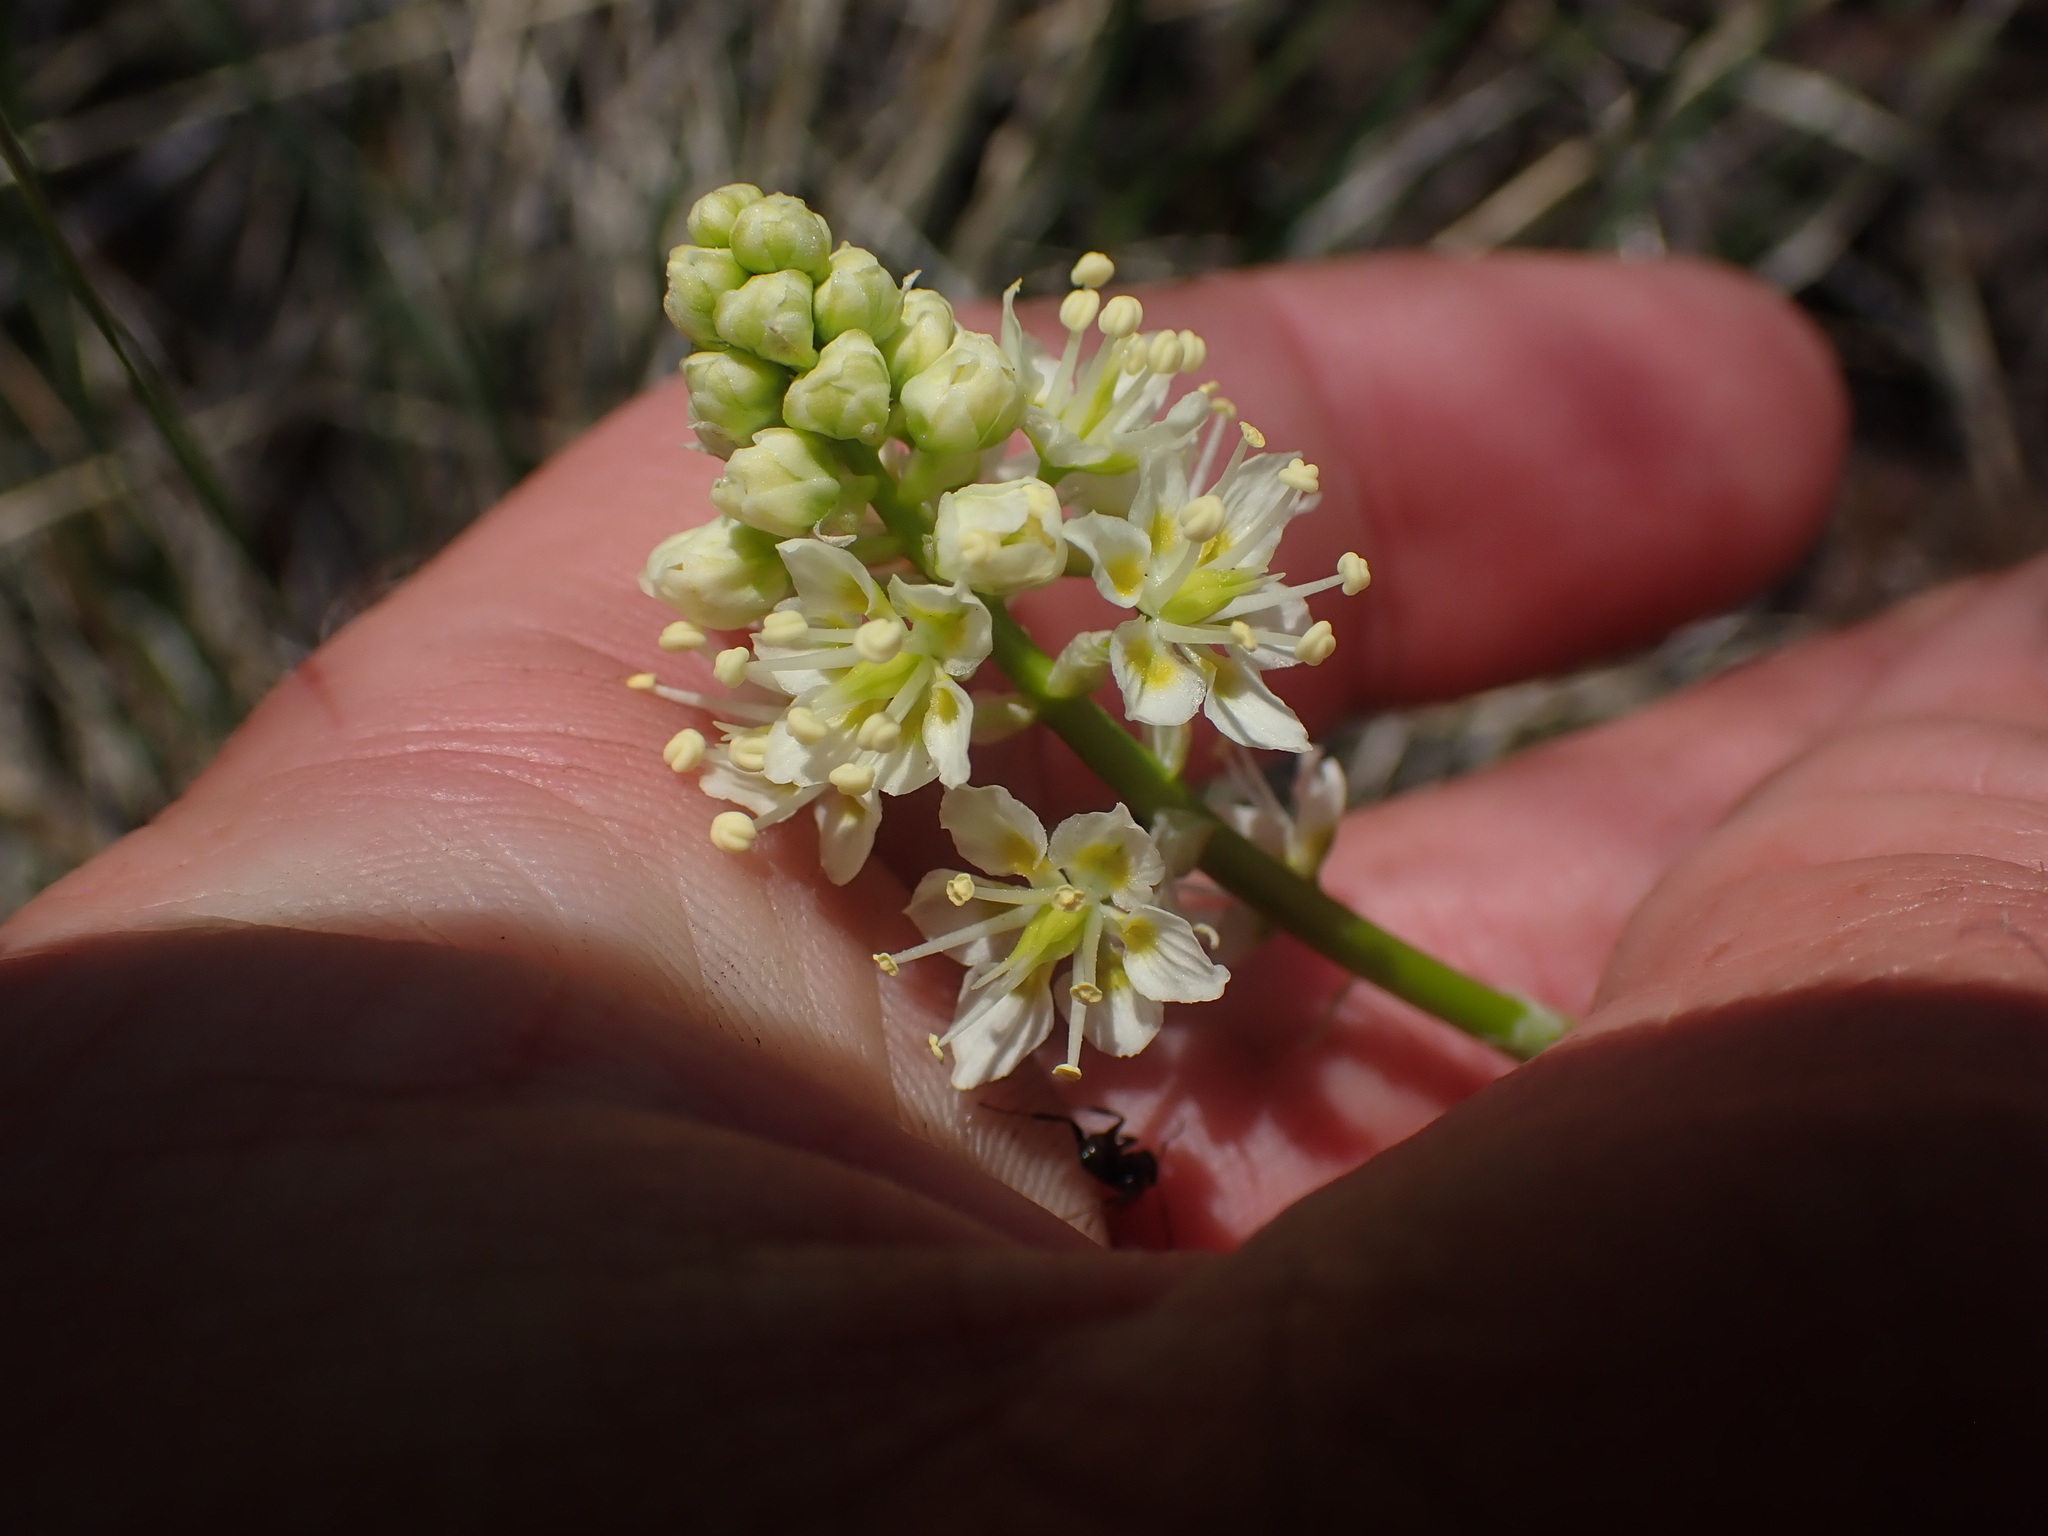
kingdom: Plantae
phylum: Tracheophyta
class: Liliopsida
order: Liliales
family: Melanthiaceae
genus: Toxicoscordion
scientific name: Toxicoscordion venenosum
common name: Meadow death camas
